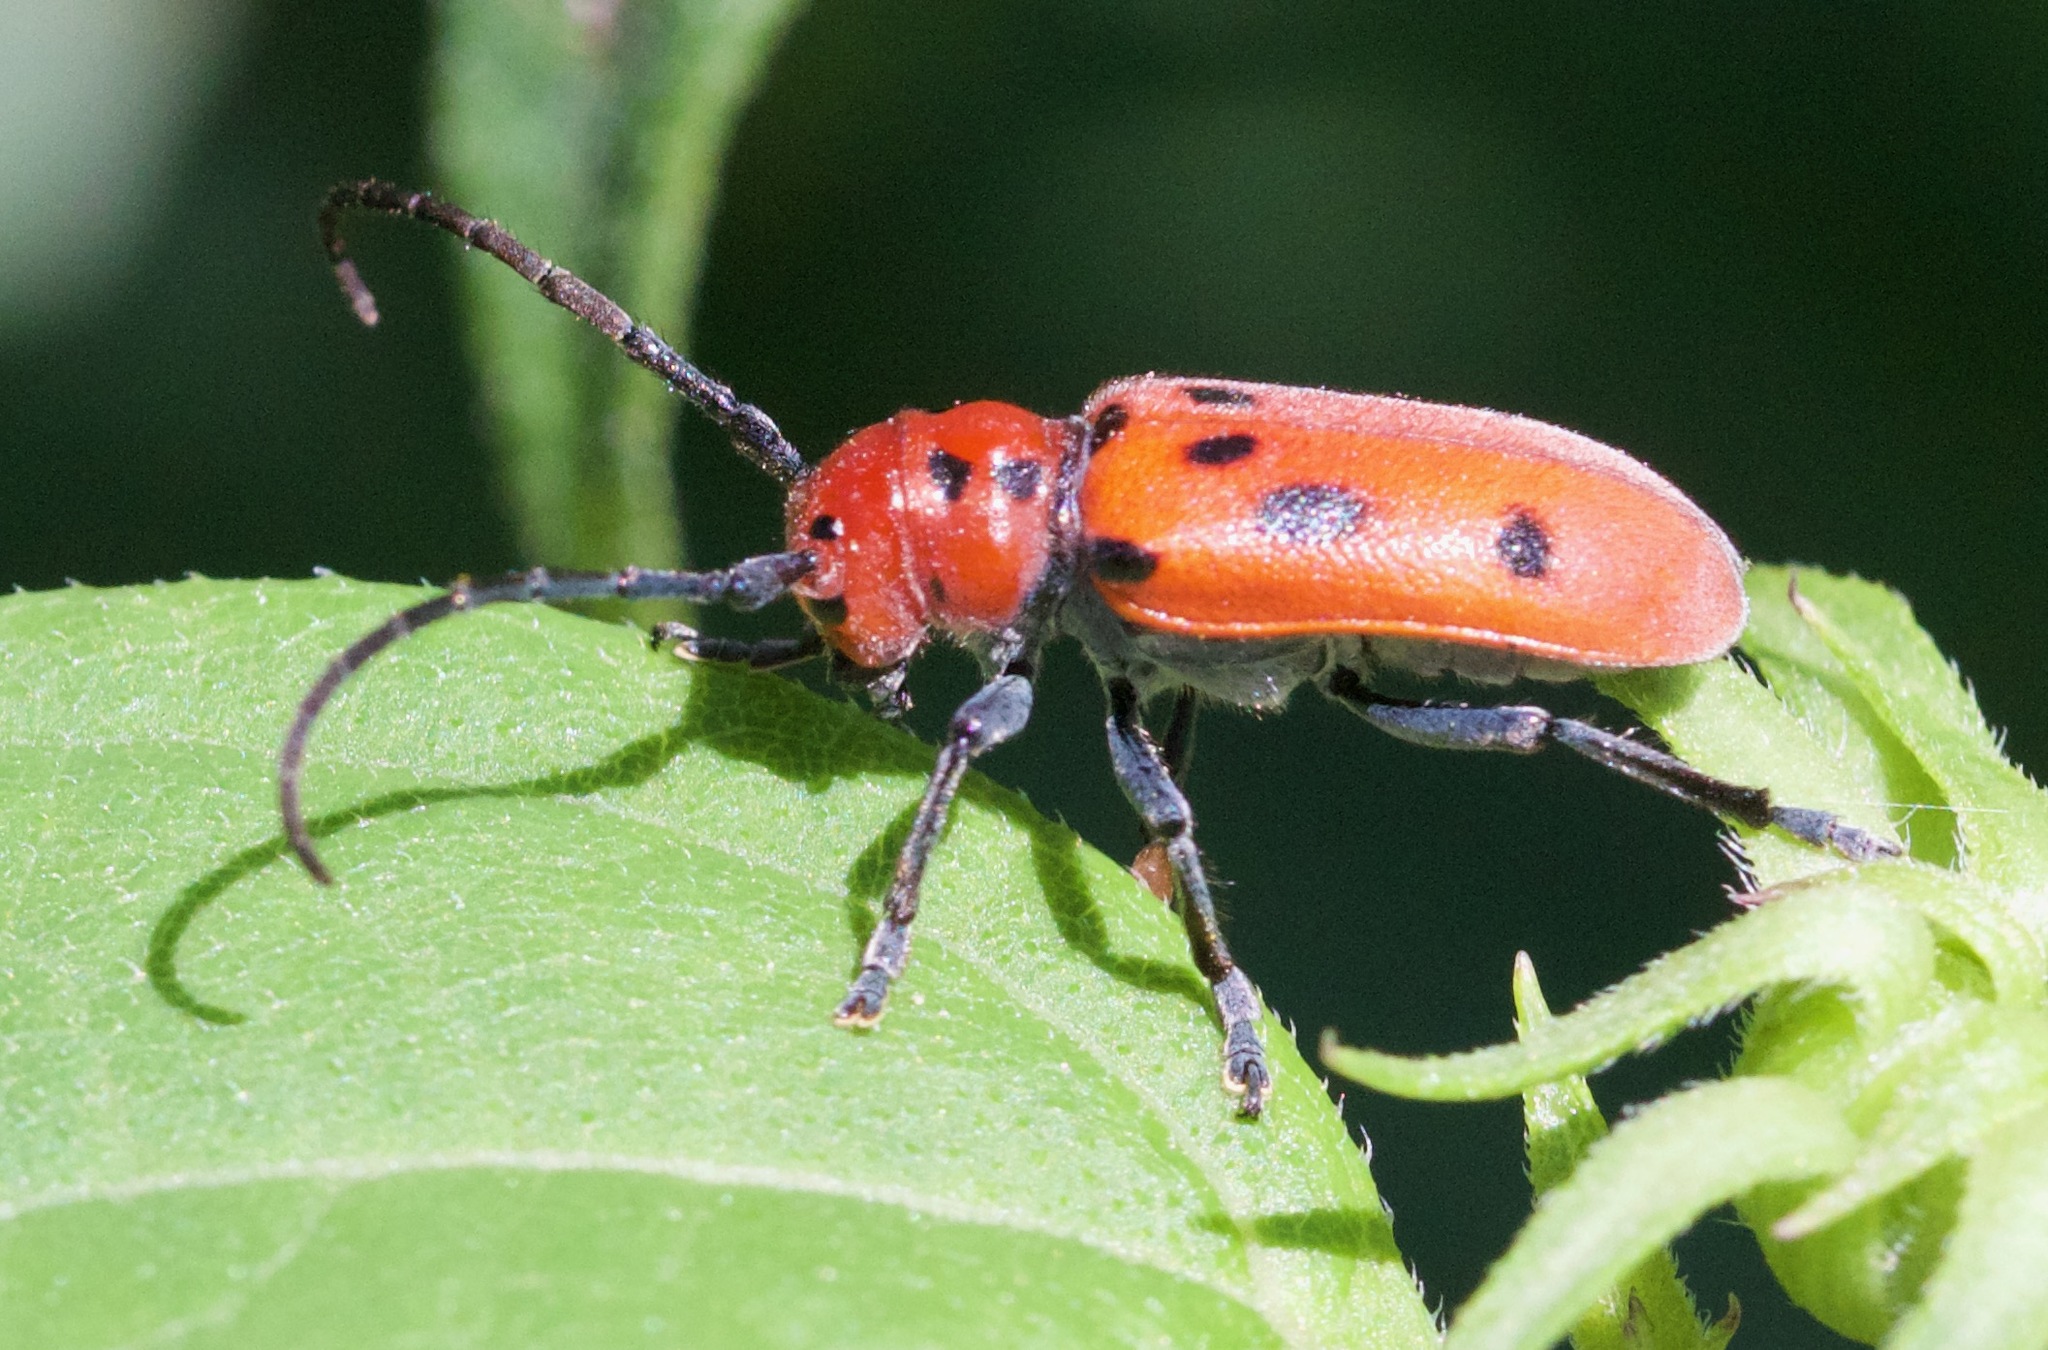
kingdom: Animalia
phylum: Arthropoda
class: Insecta
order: Coleoptera
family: Cerambycidae
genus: Tetraopes
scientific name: Tetraopes tetrophthalmus
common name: Red milkweed beetle
